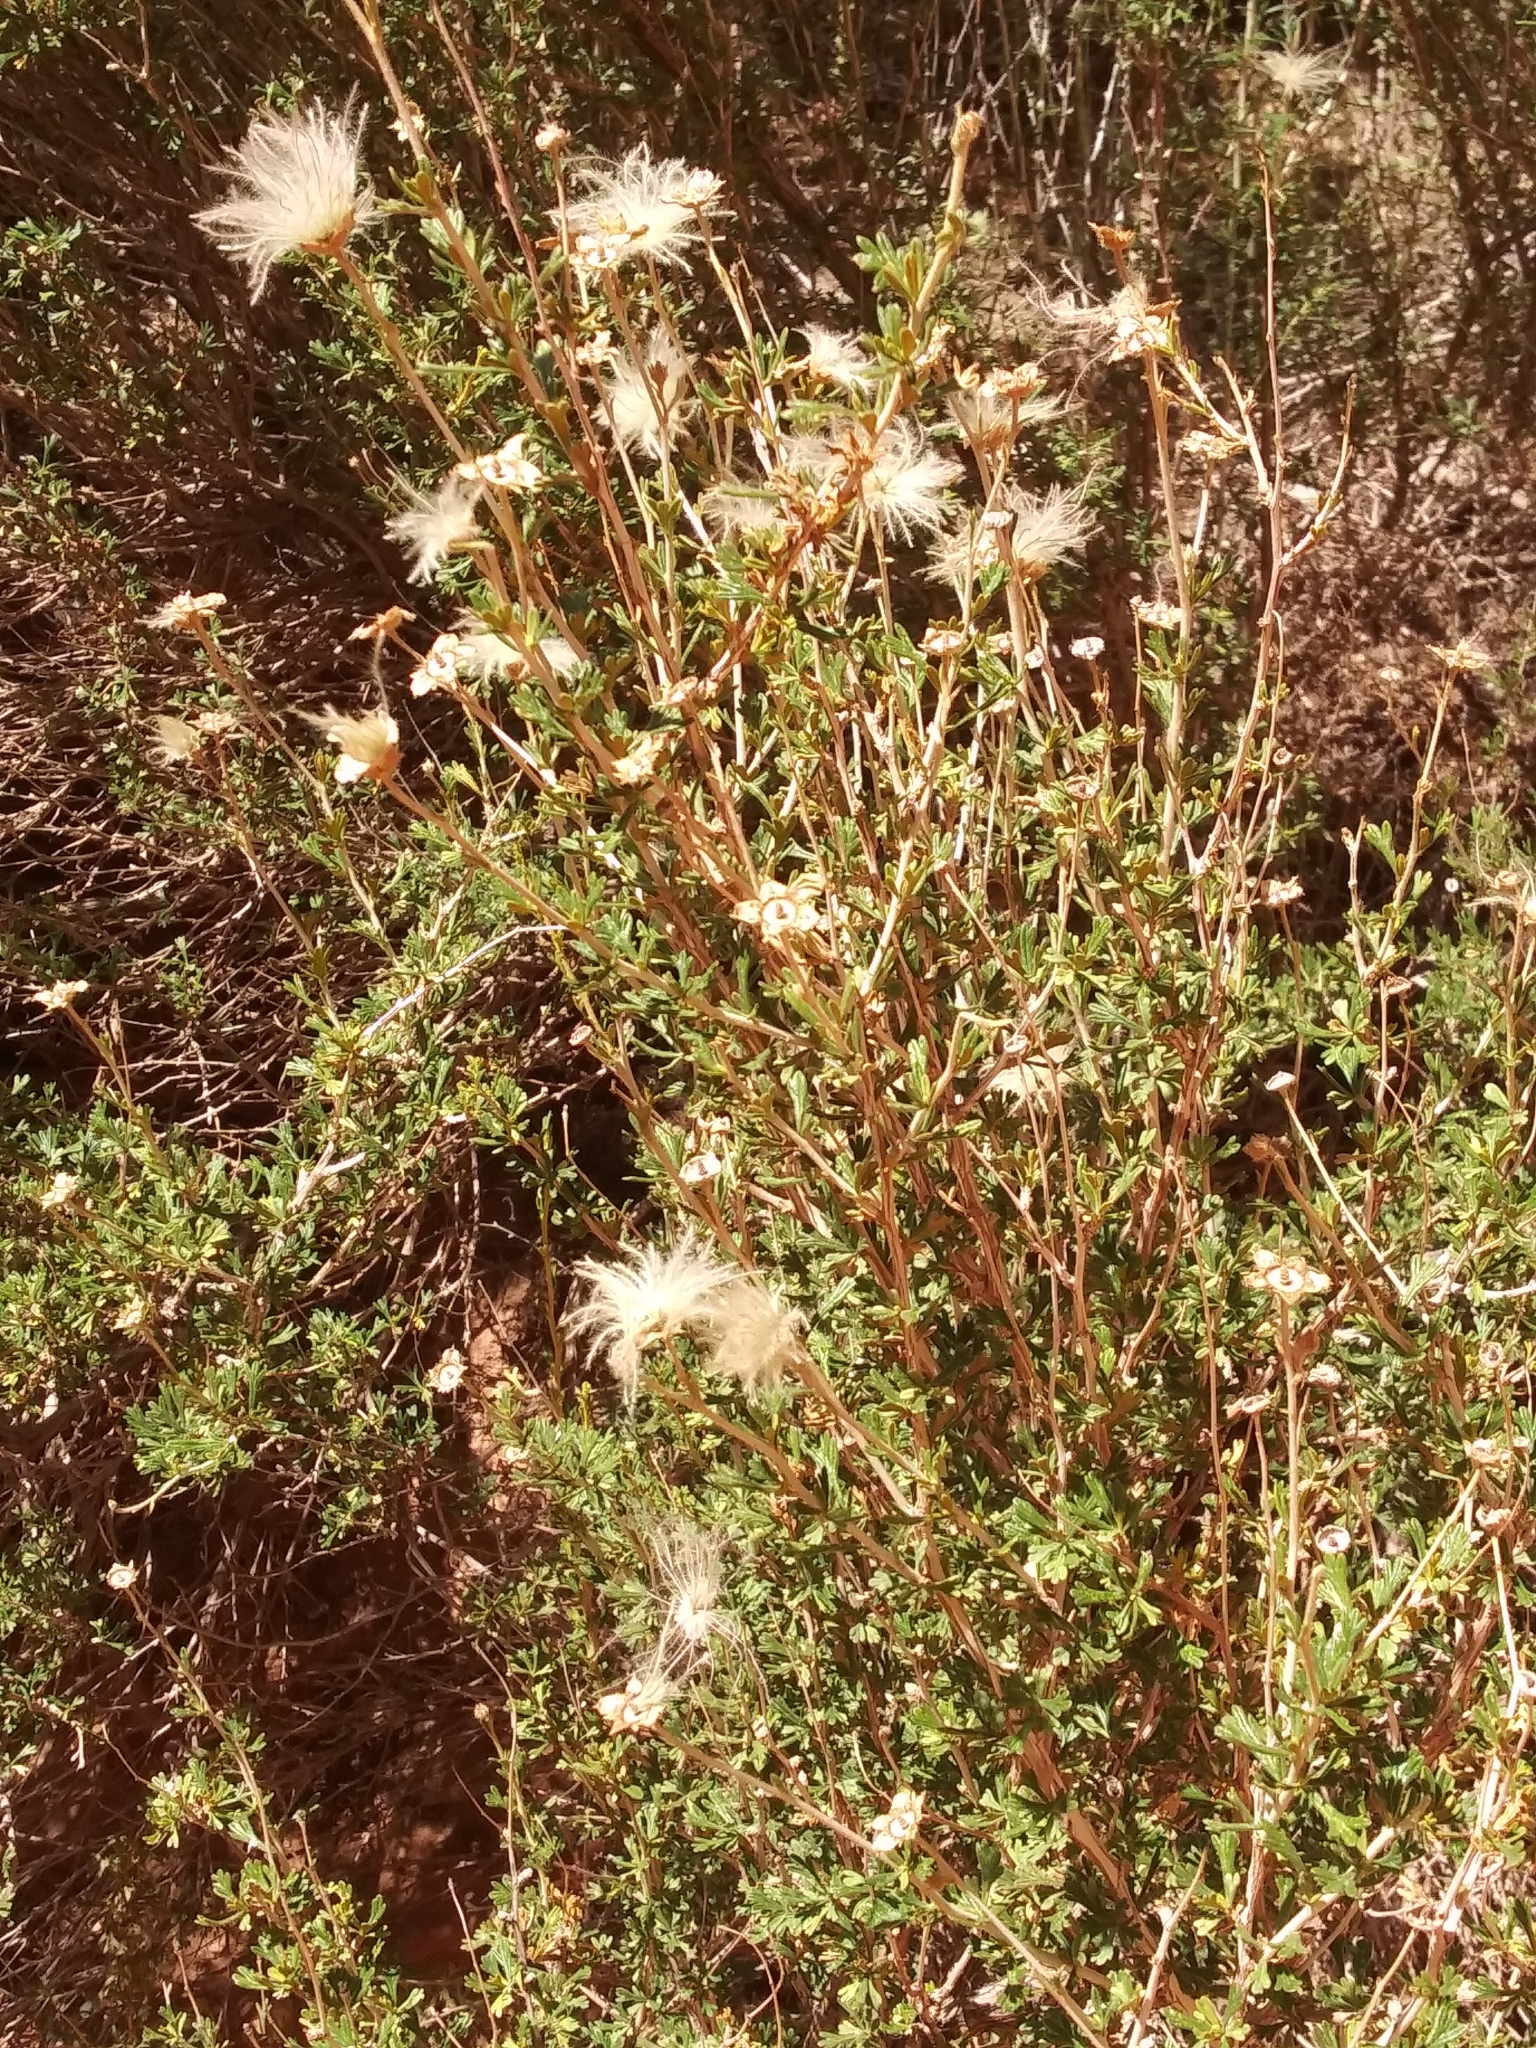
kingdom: Plantae
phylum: Tracheophyta
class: Magnoliopsida
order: Rosales
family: Rosaceae
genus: Fallugia
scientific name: Fallugia paradoxa
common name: Apache-plume
